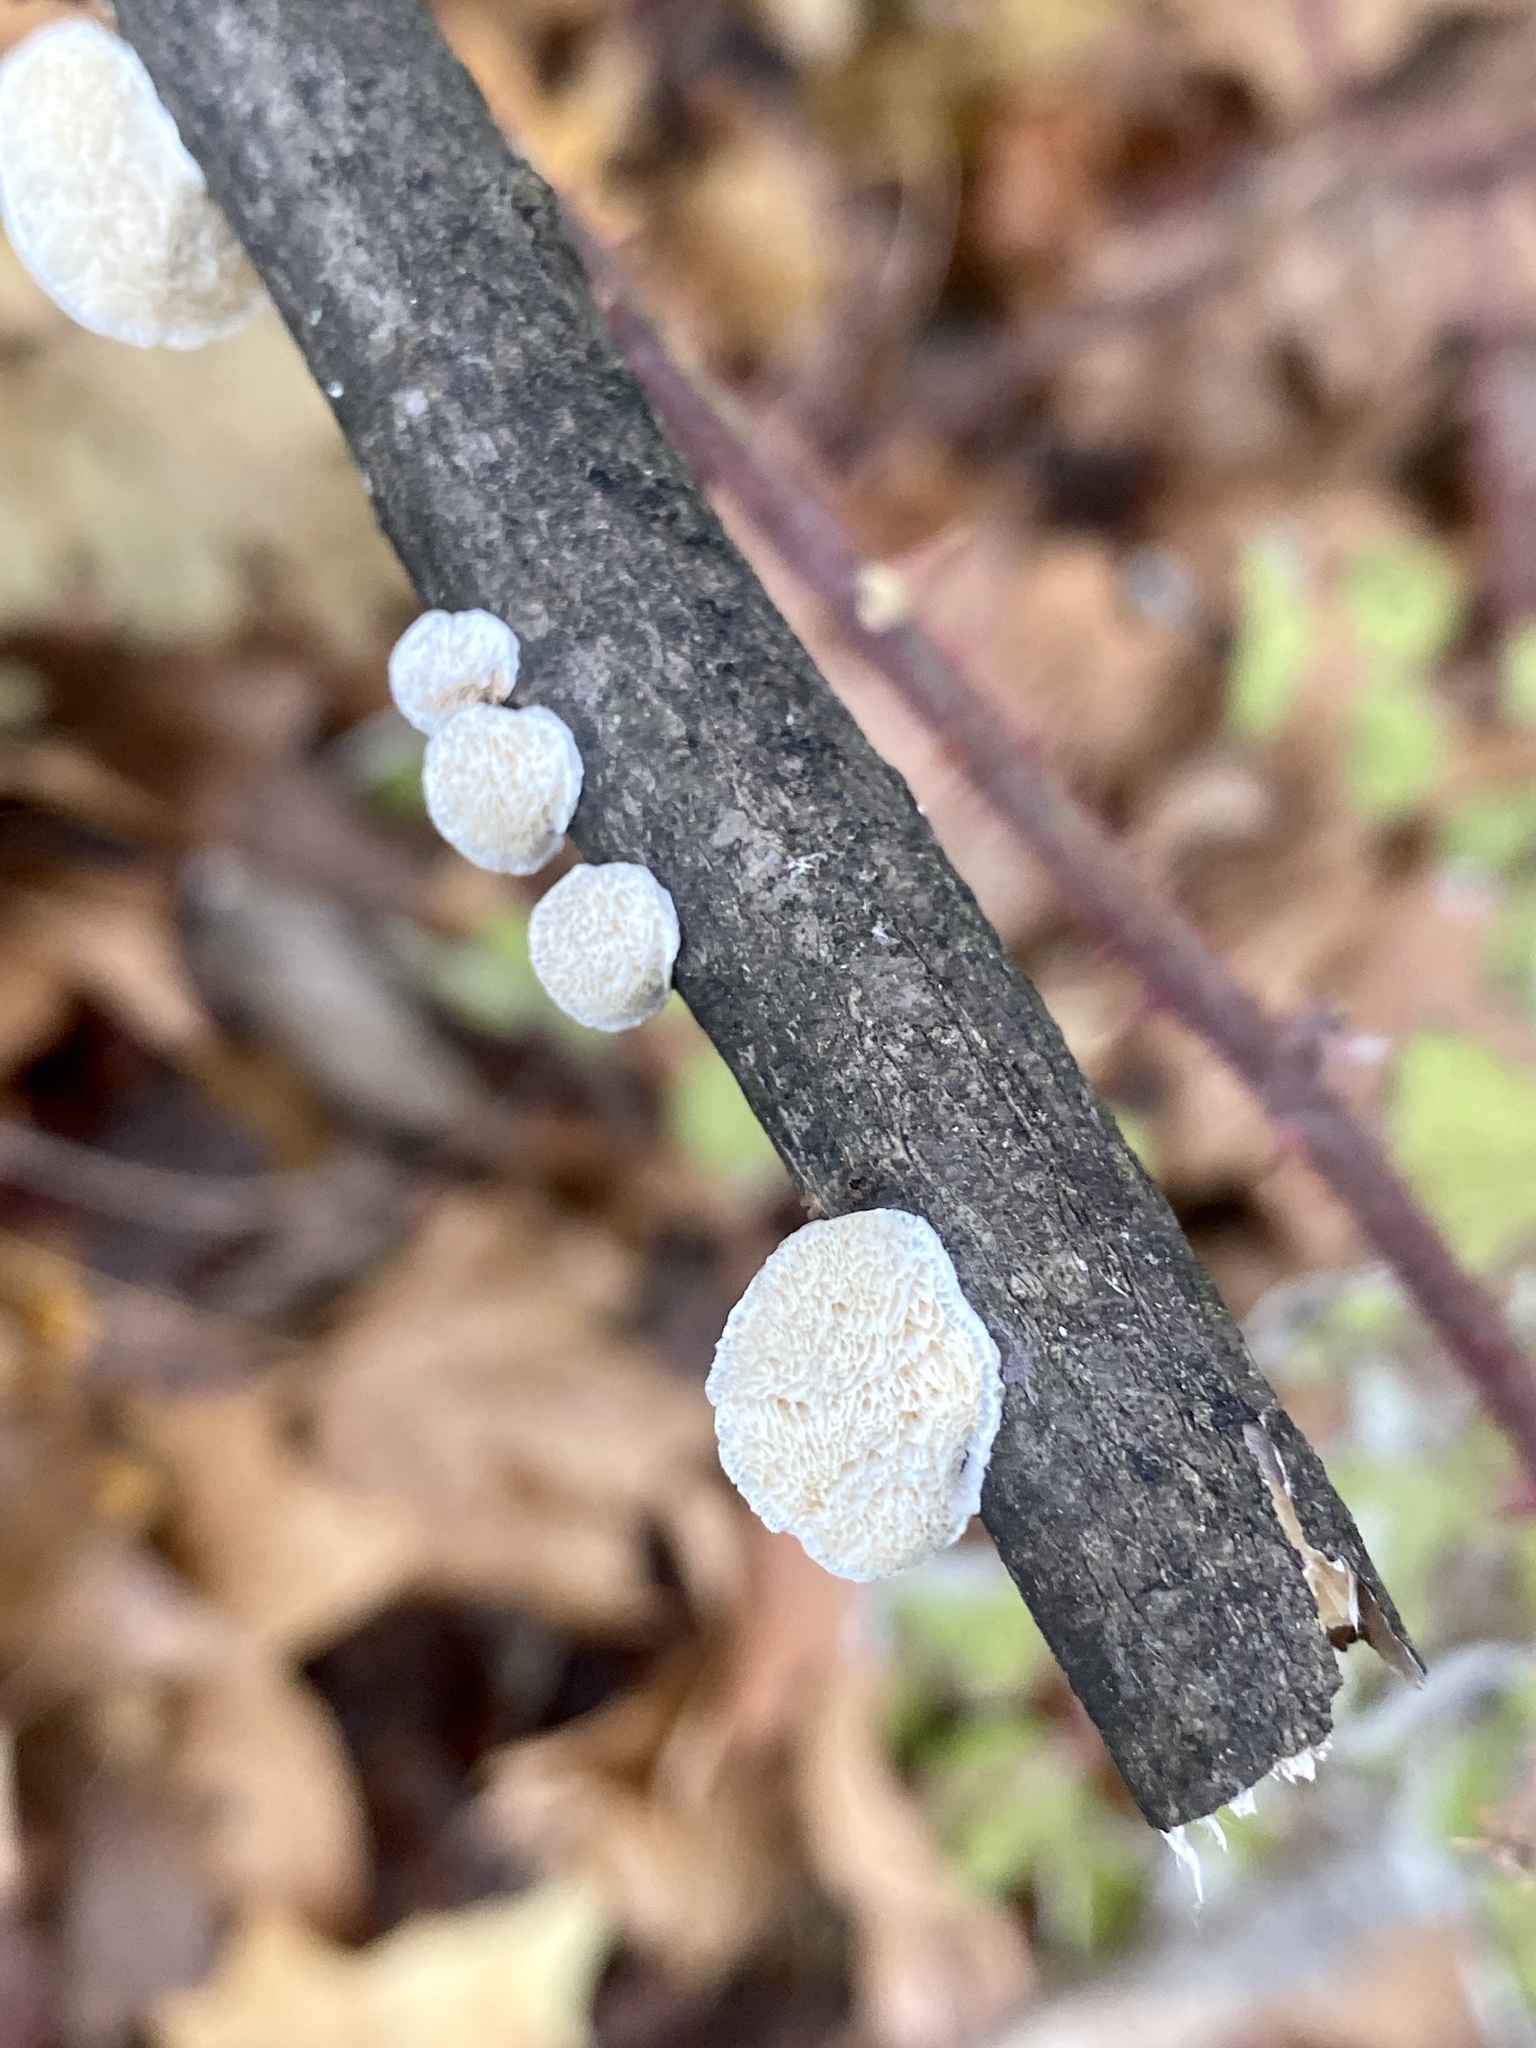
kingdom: Fungi
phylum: Basidiomycota
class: Agaricomycetes
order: Polyporales
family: Polyporaceae
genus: Poronidulus
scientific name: Poronidulus conchifer
